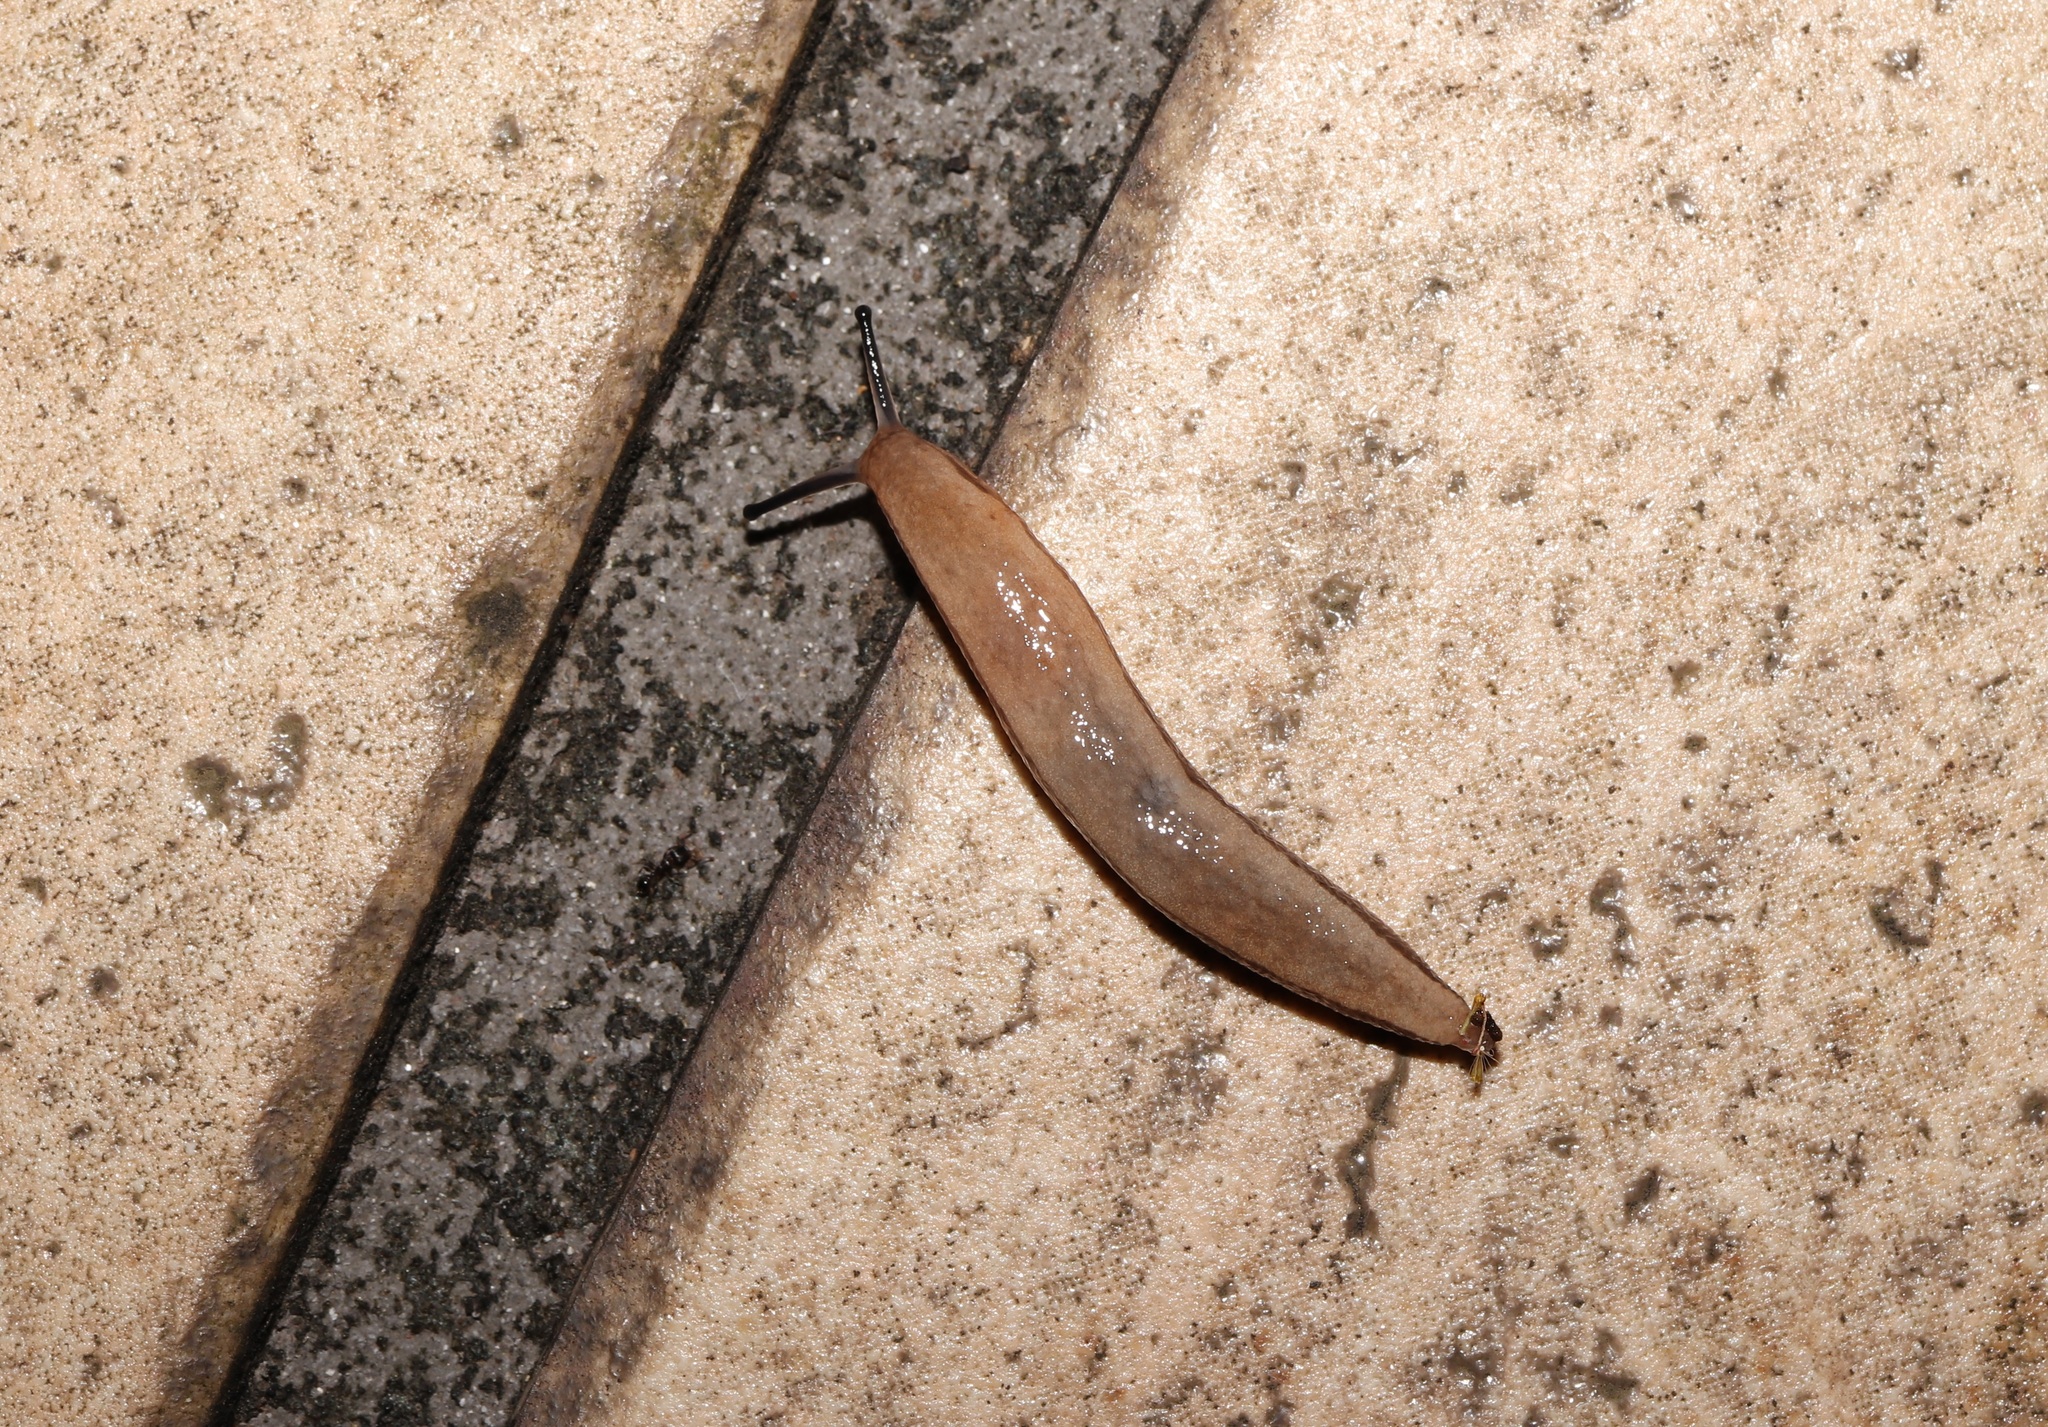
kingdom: Animalia
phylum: Mollusca
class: Gastropoda
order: Stylommatophora
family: Philomycidae
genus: Meghimatium
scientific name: Meghimatium bilineatum
